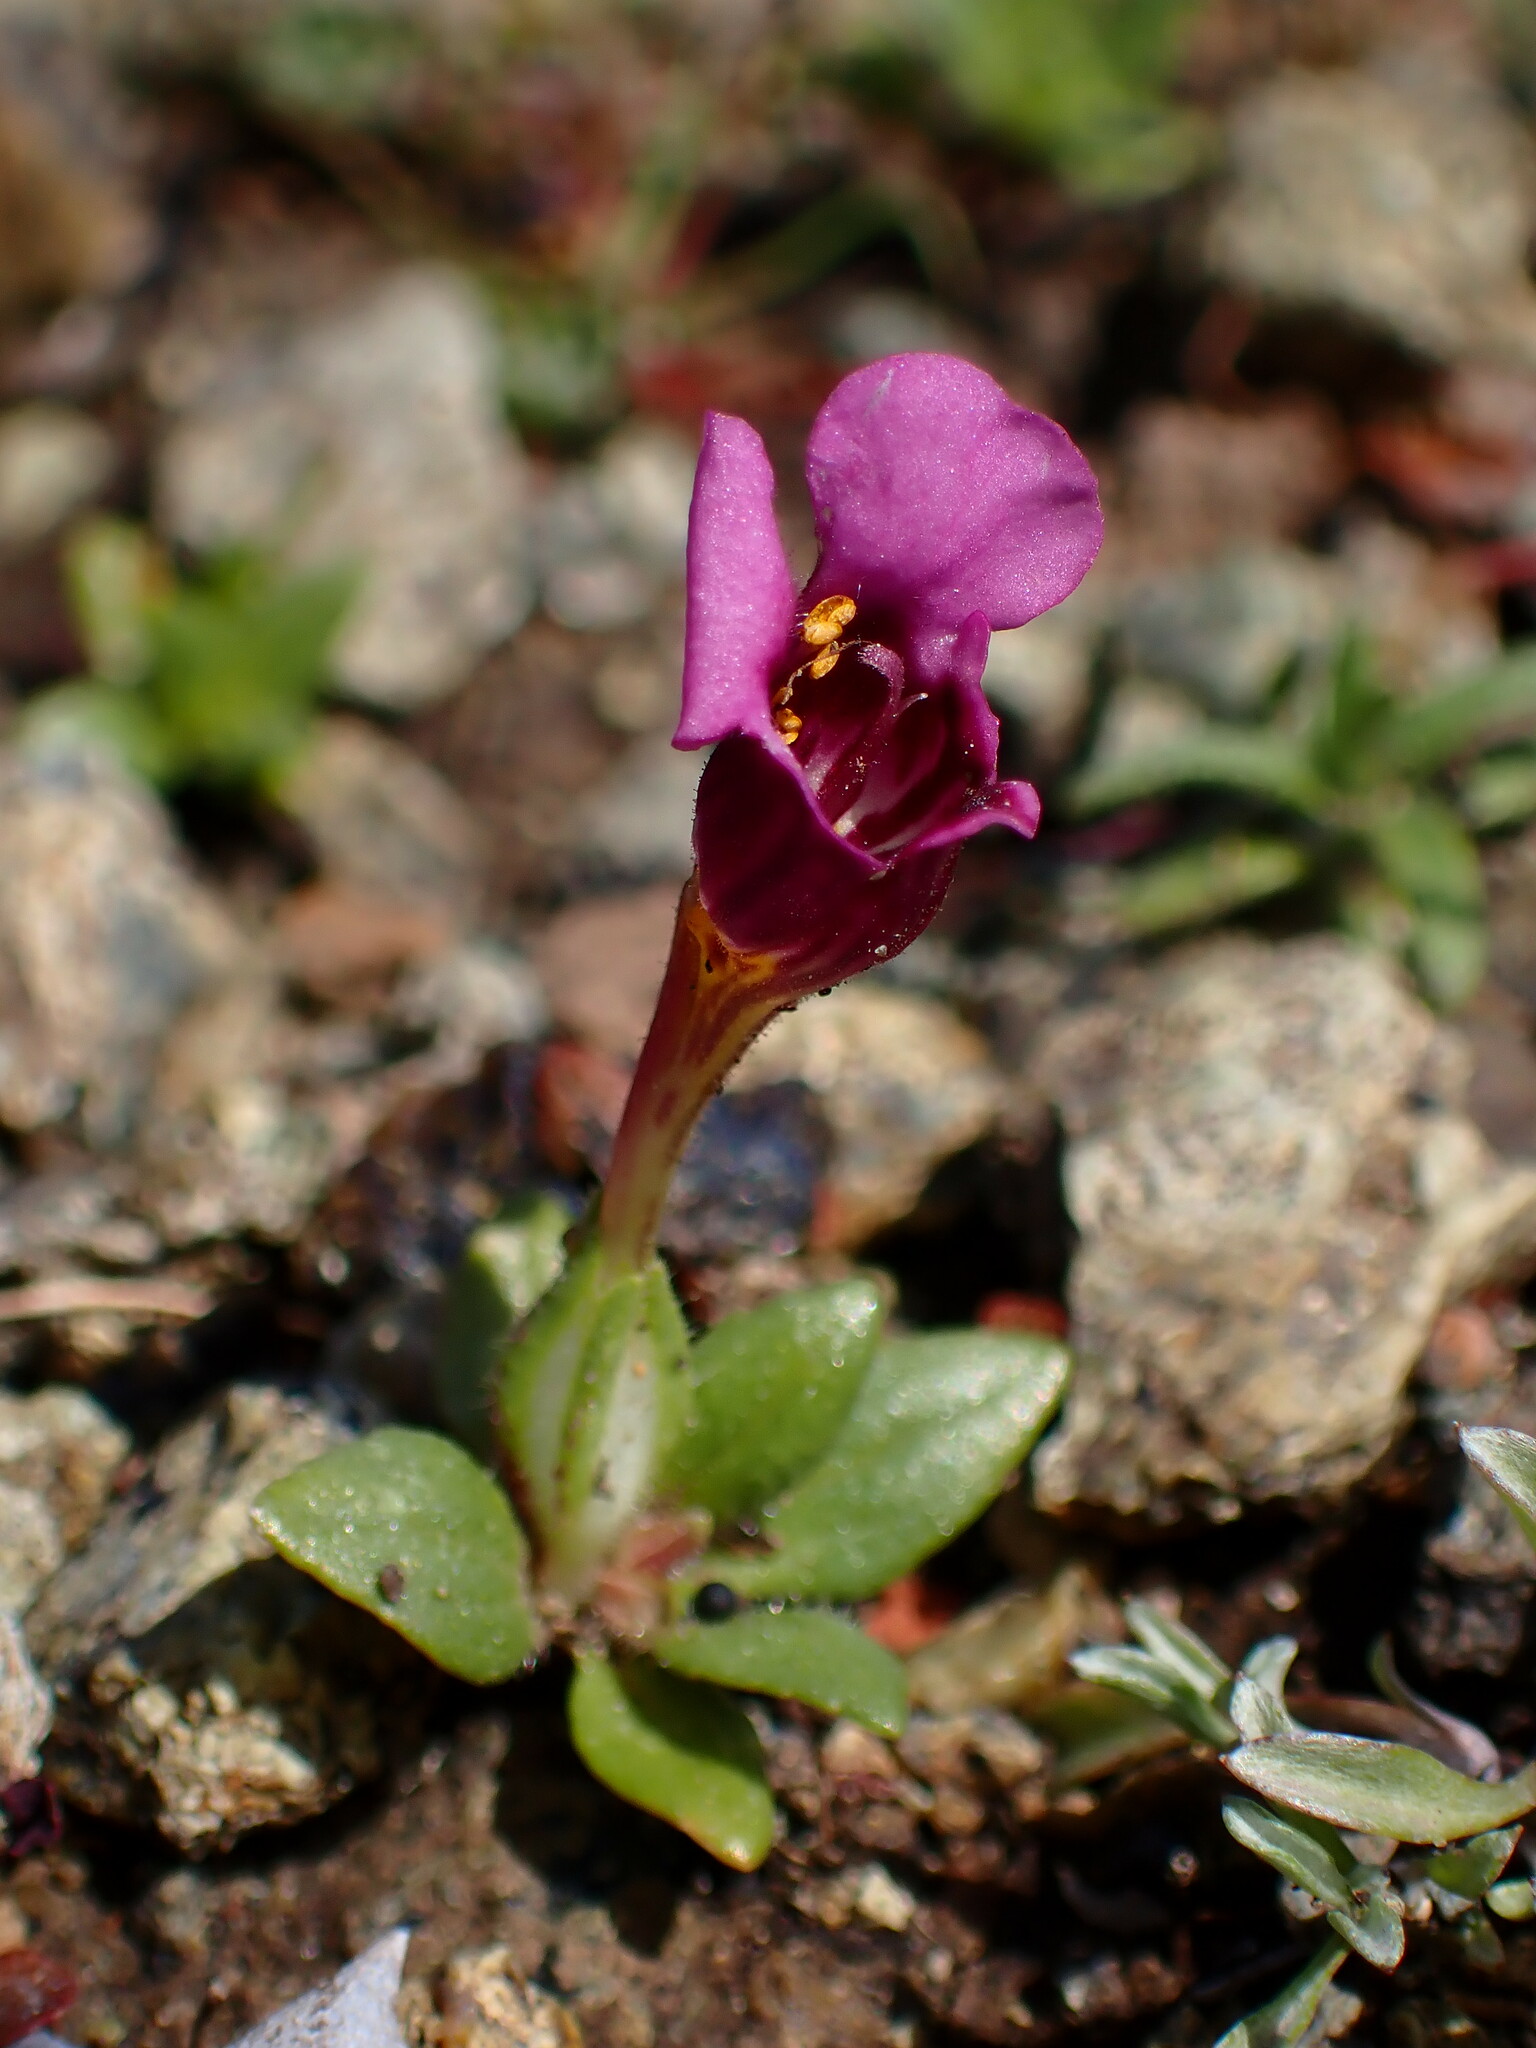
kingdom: Plantae
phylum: Tracheophyta
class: Magnoliopsida
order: Lamiales
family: Phrymaceae
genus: Diplacus
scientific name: Diplacus douglasii
